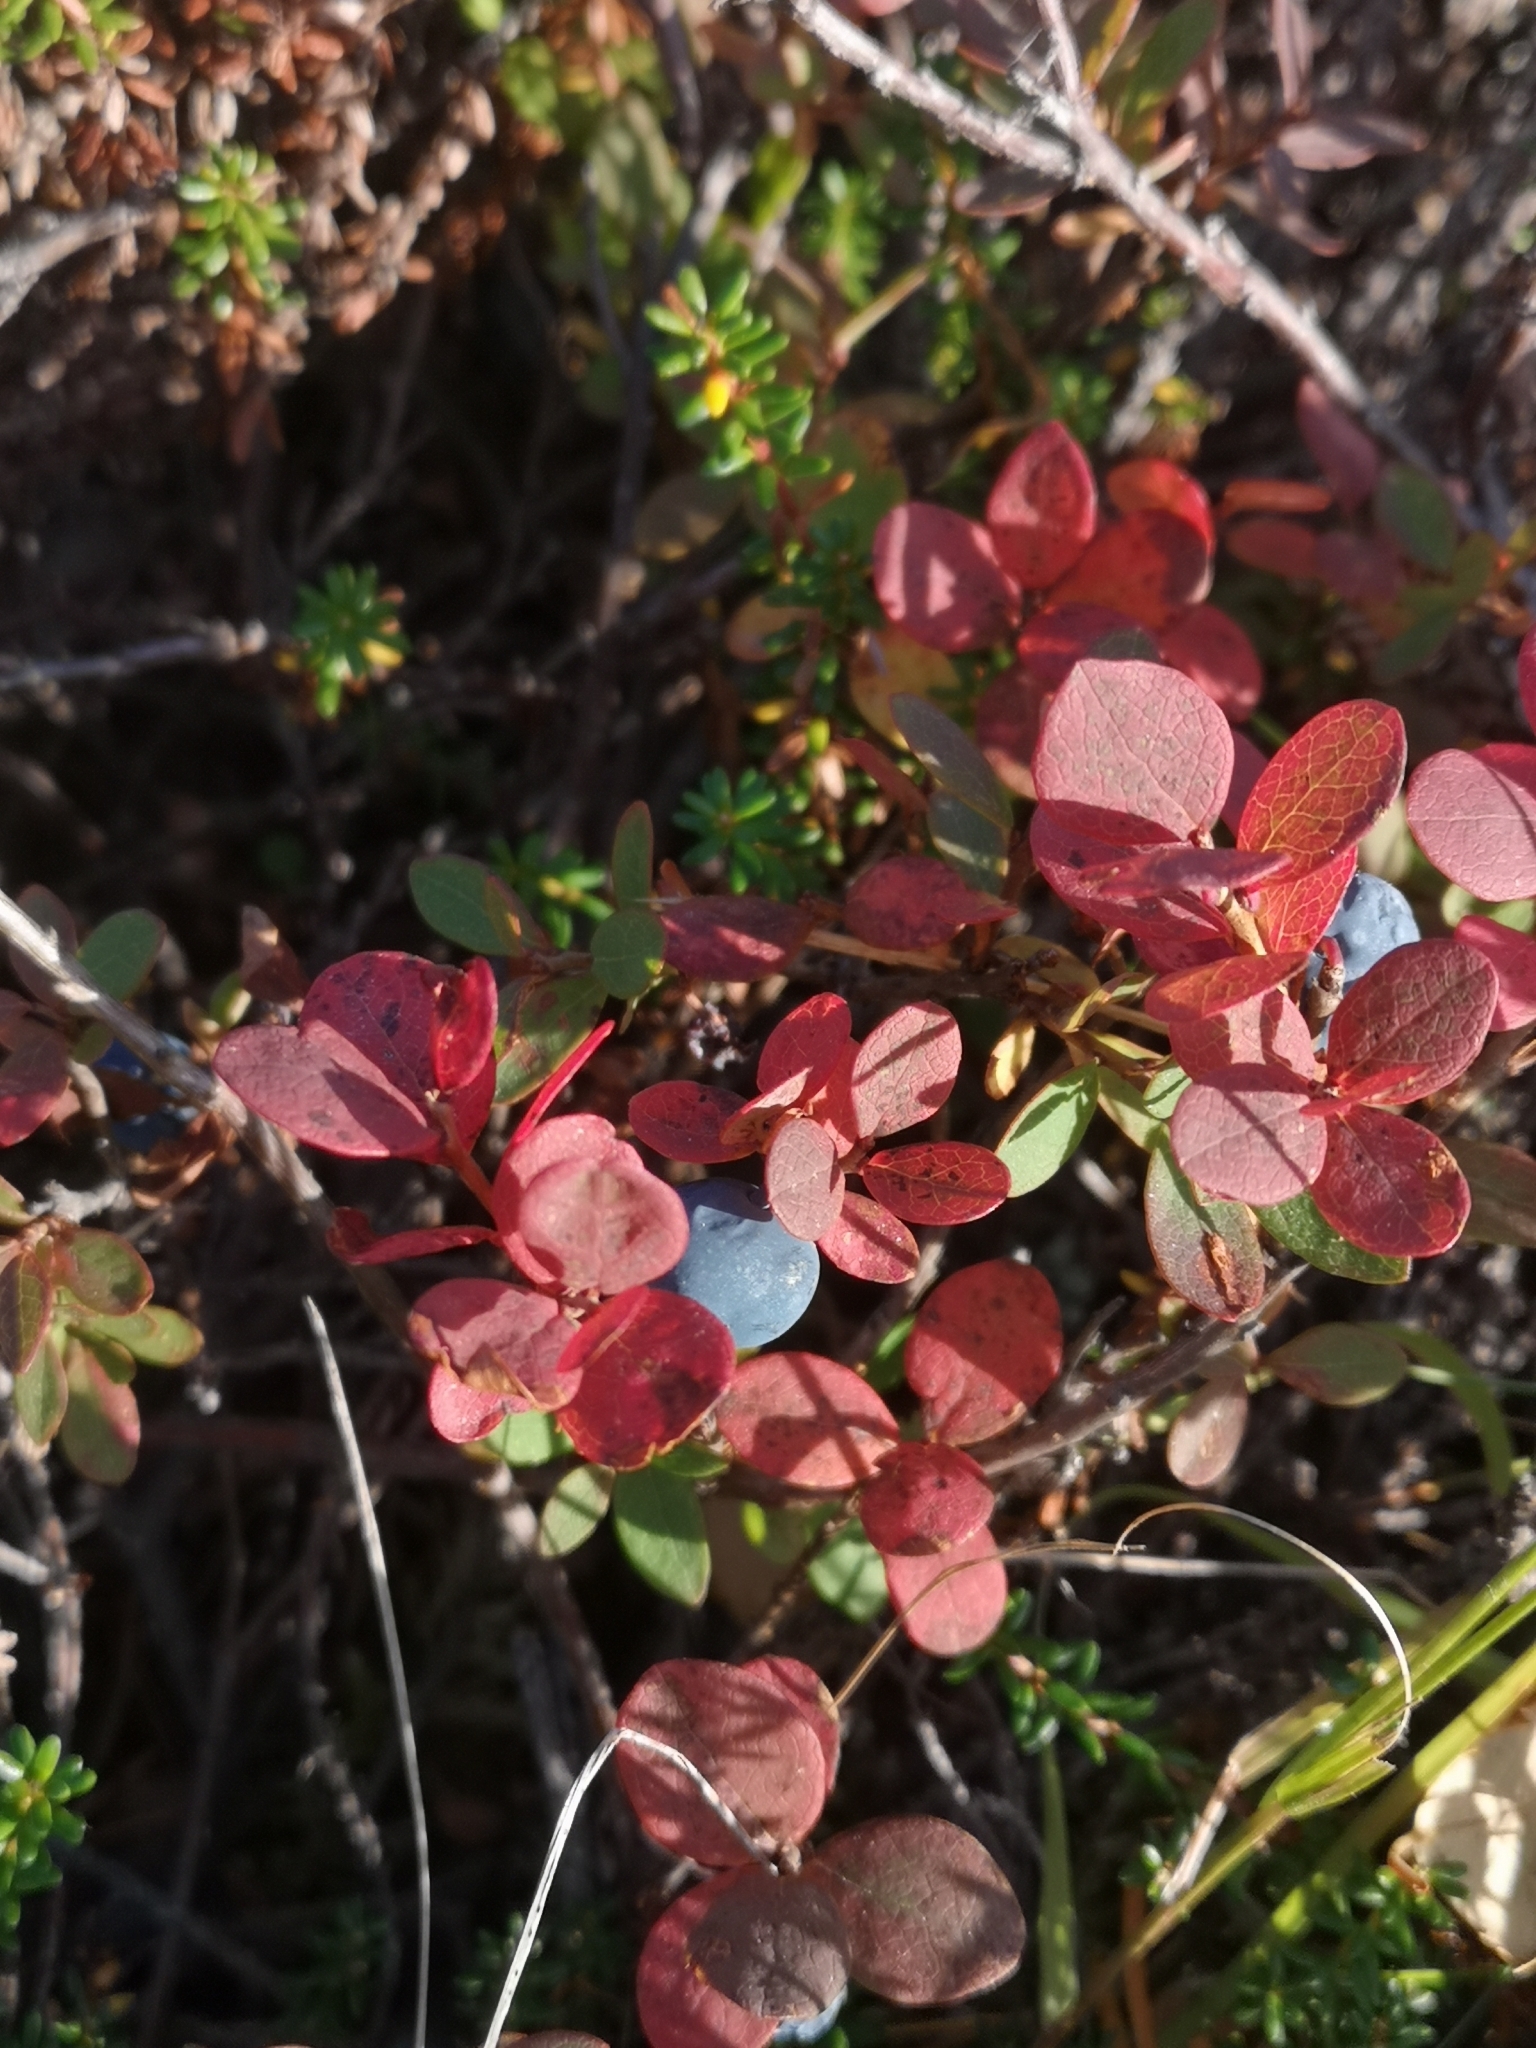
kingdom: Plantae
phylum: Tracheophyta
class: Magnoliopsida
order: Ericales
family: Ericaceae
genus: Vaccinium
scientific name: Vaccinium uliginosum
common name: Bog bilberry
